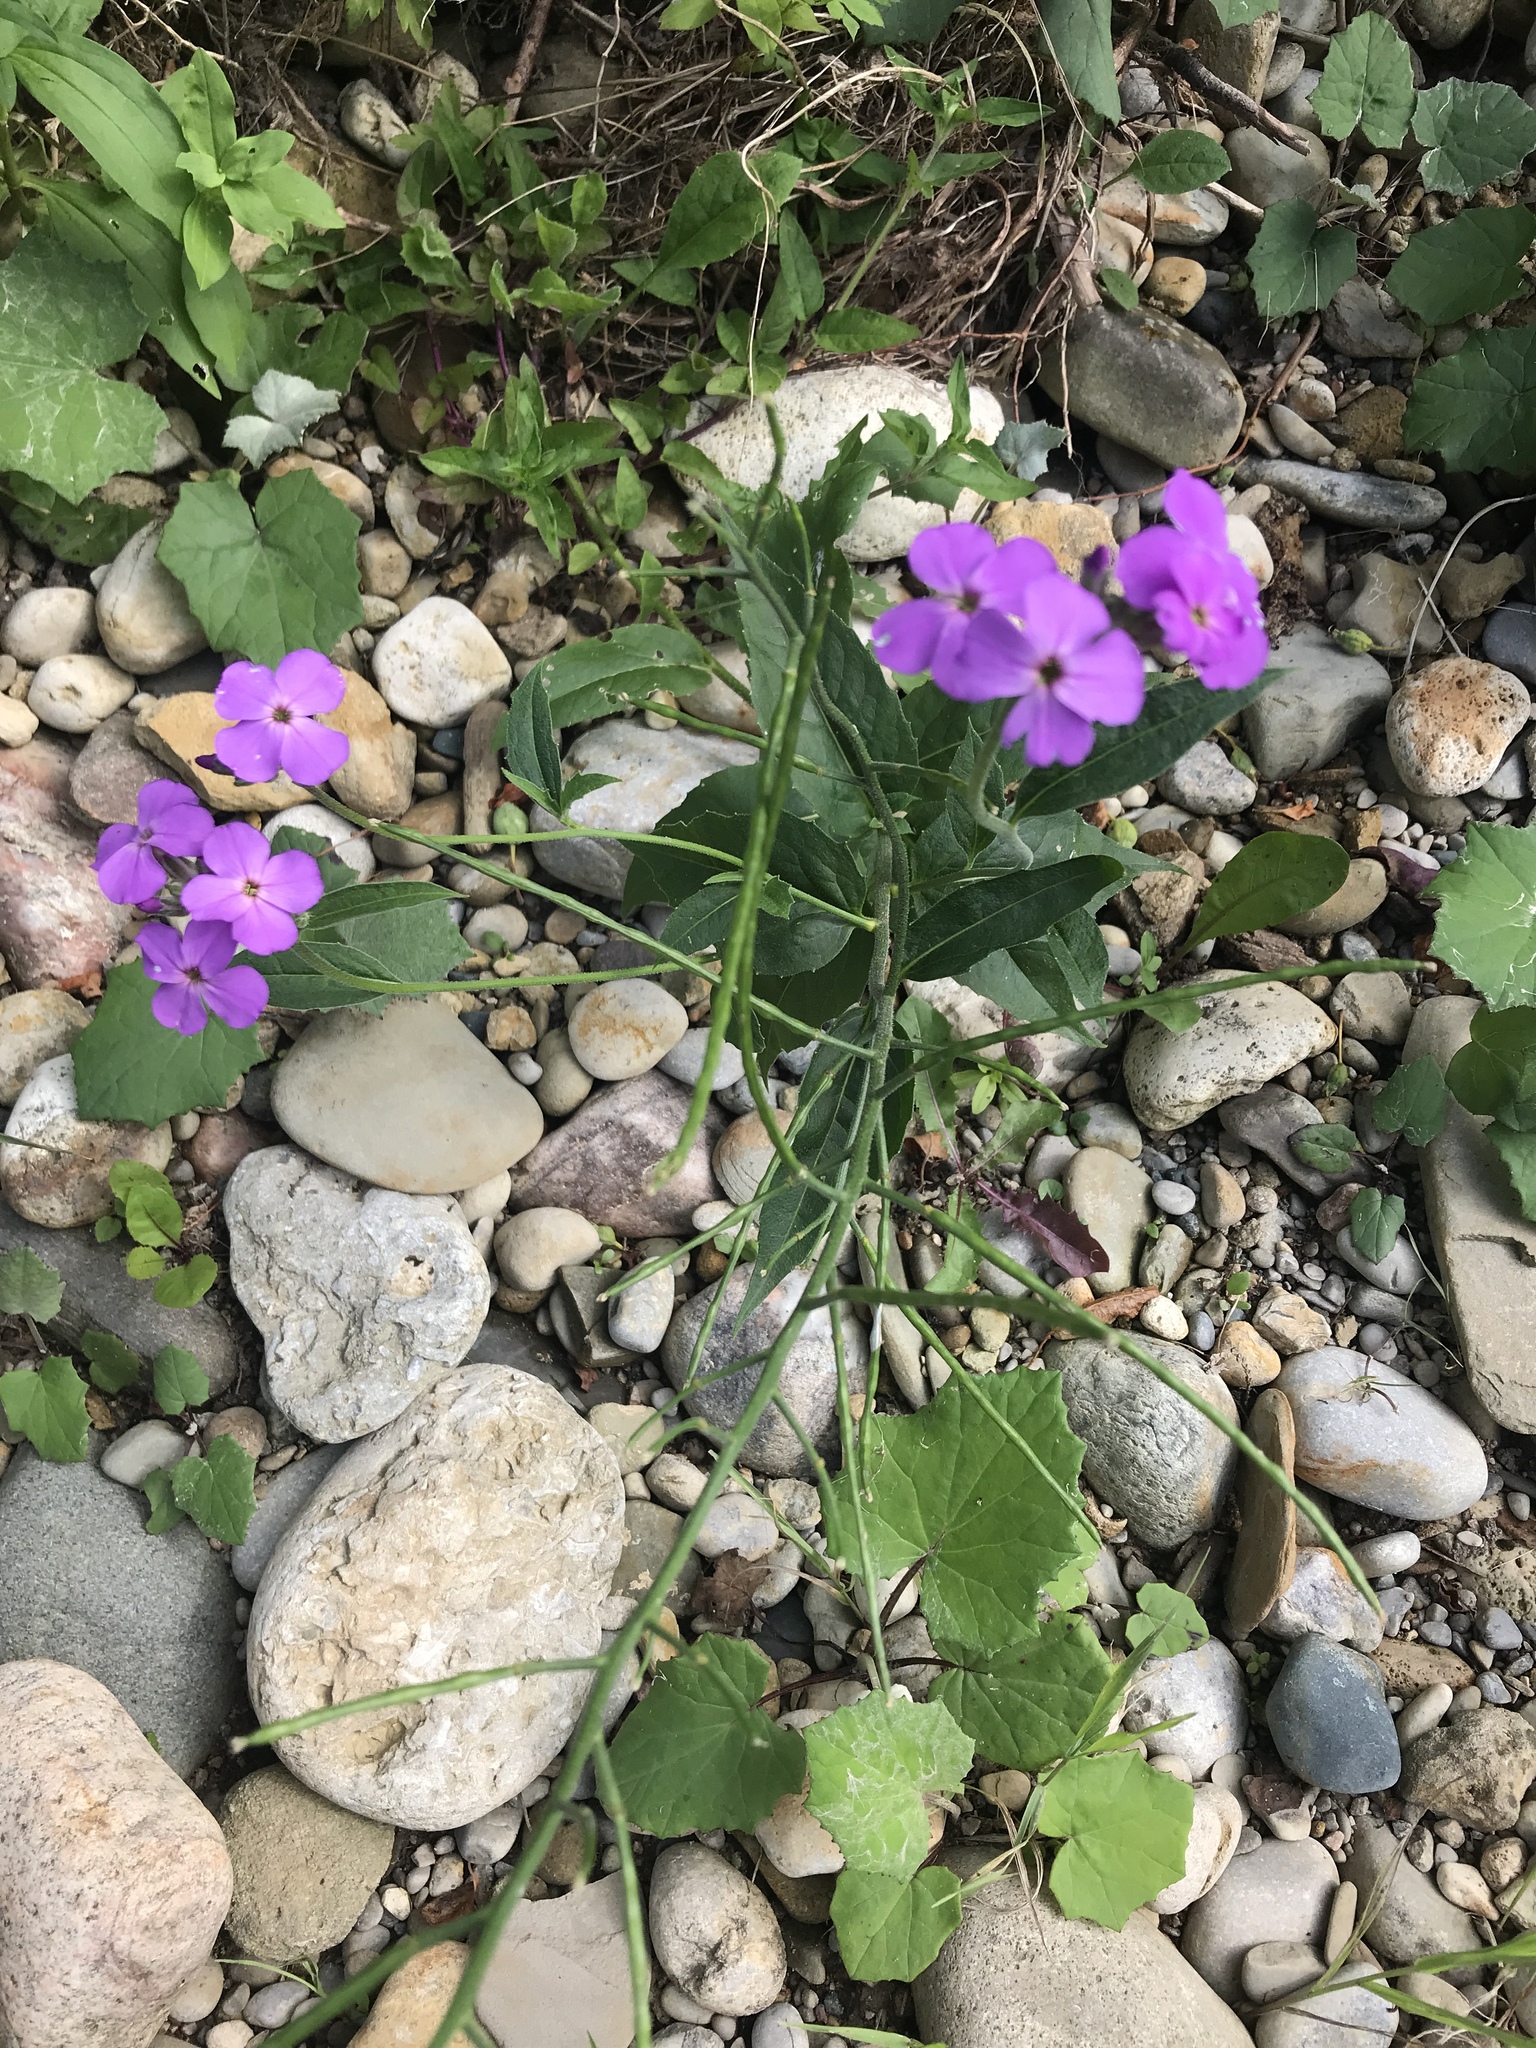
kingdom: Plantae
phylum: Tracheophyta
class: Magnoliopsida
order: Brassicales
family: Brassicaceae
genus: Hesperis
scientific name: Hesperis matronalis
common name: Dame's-violet
